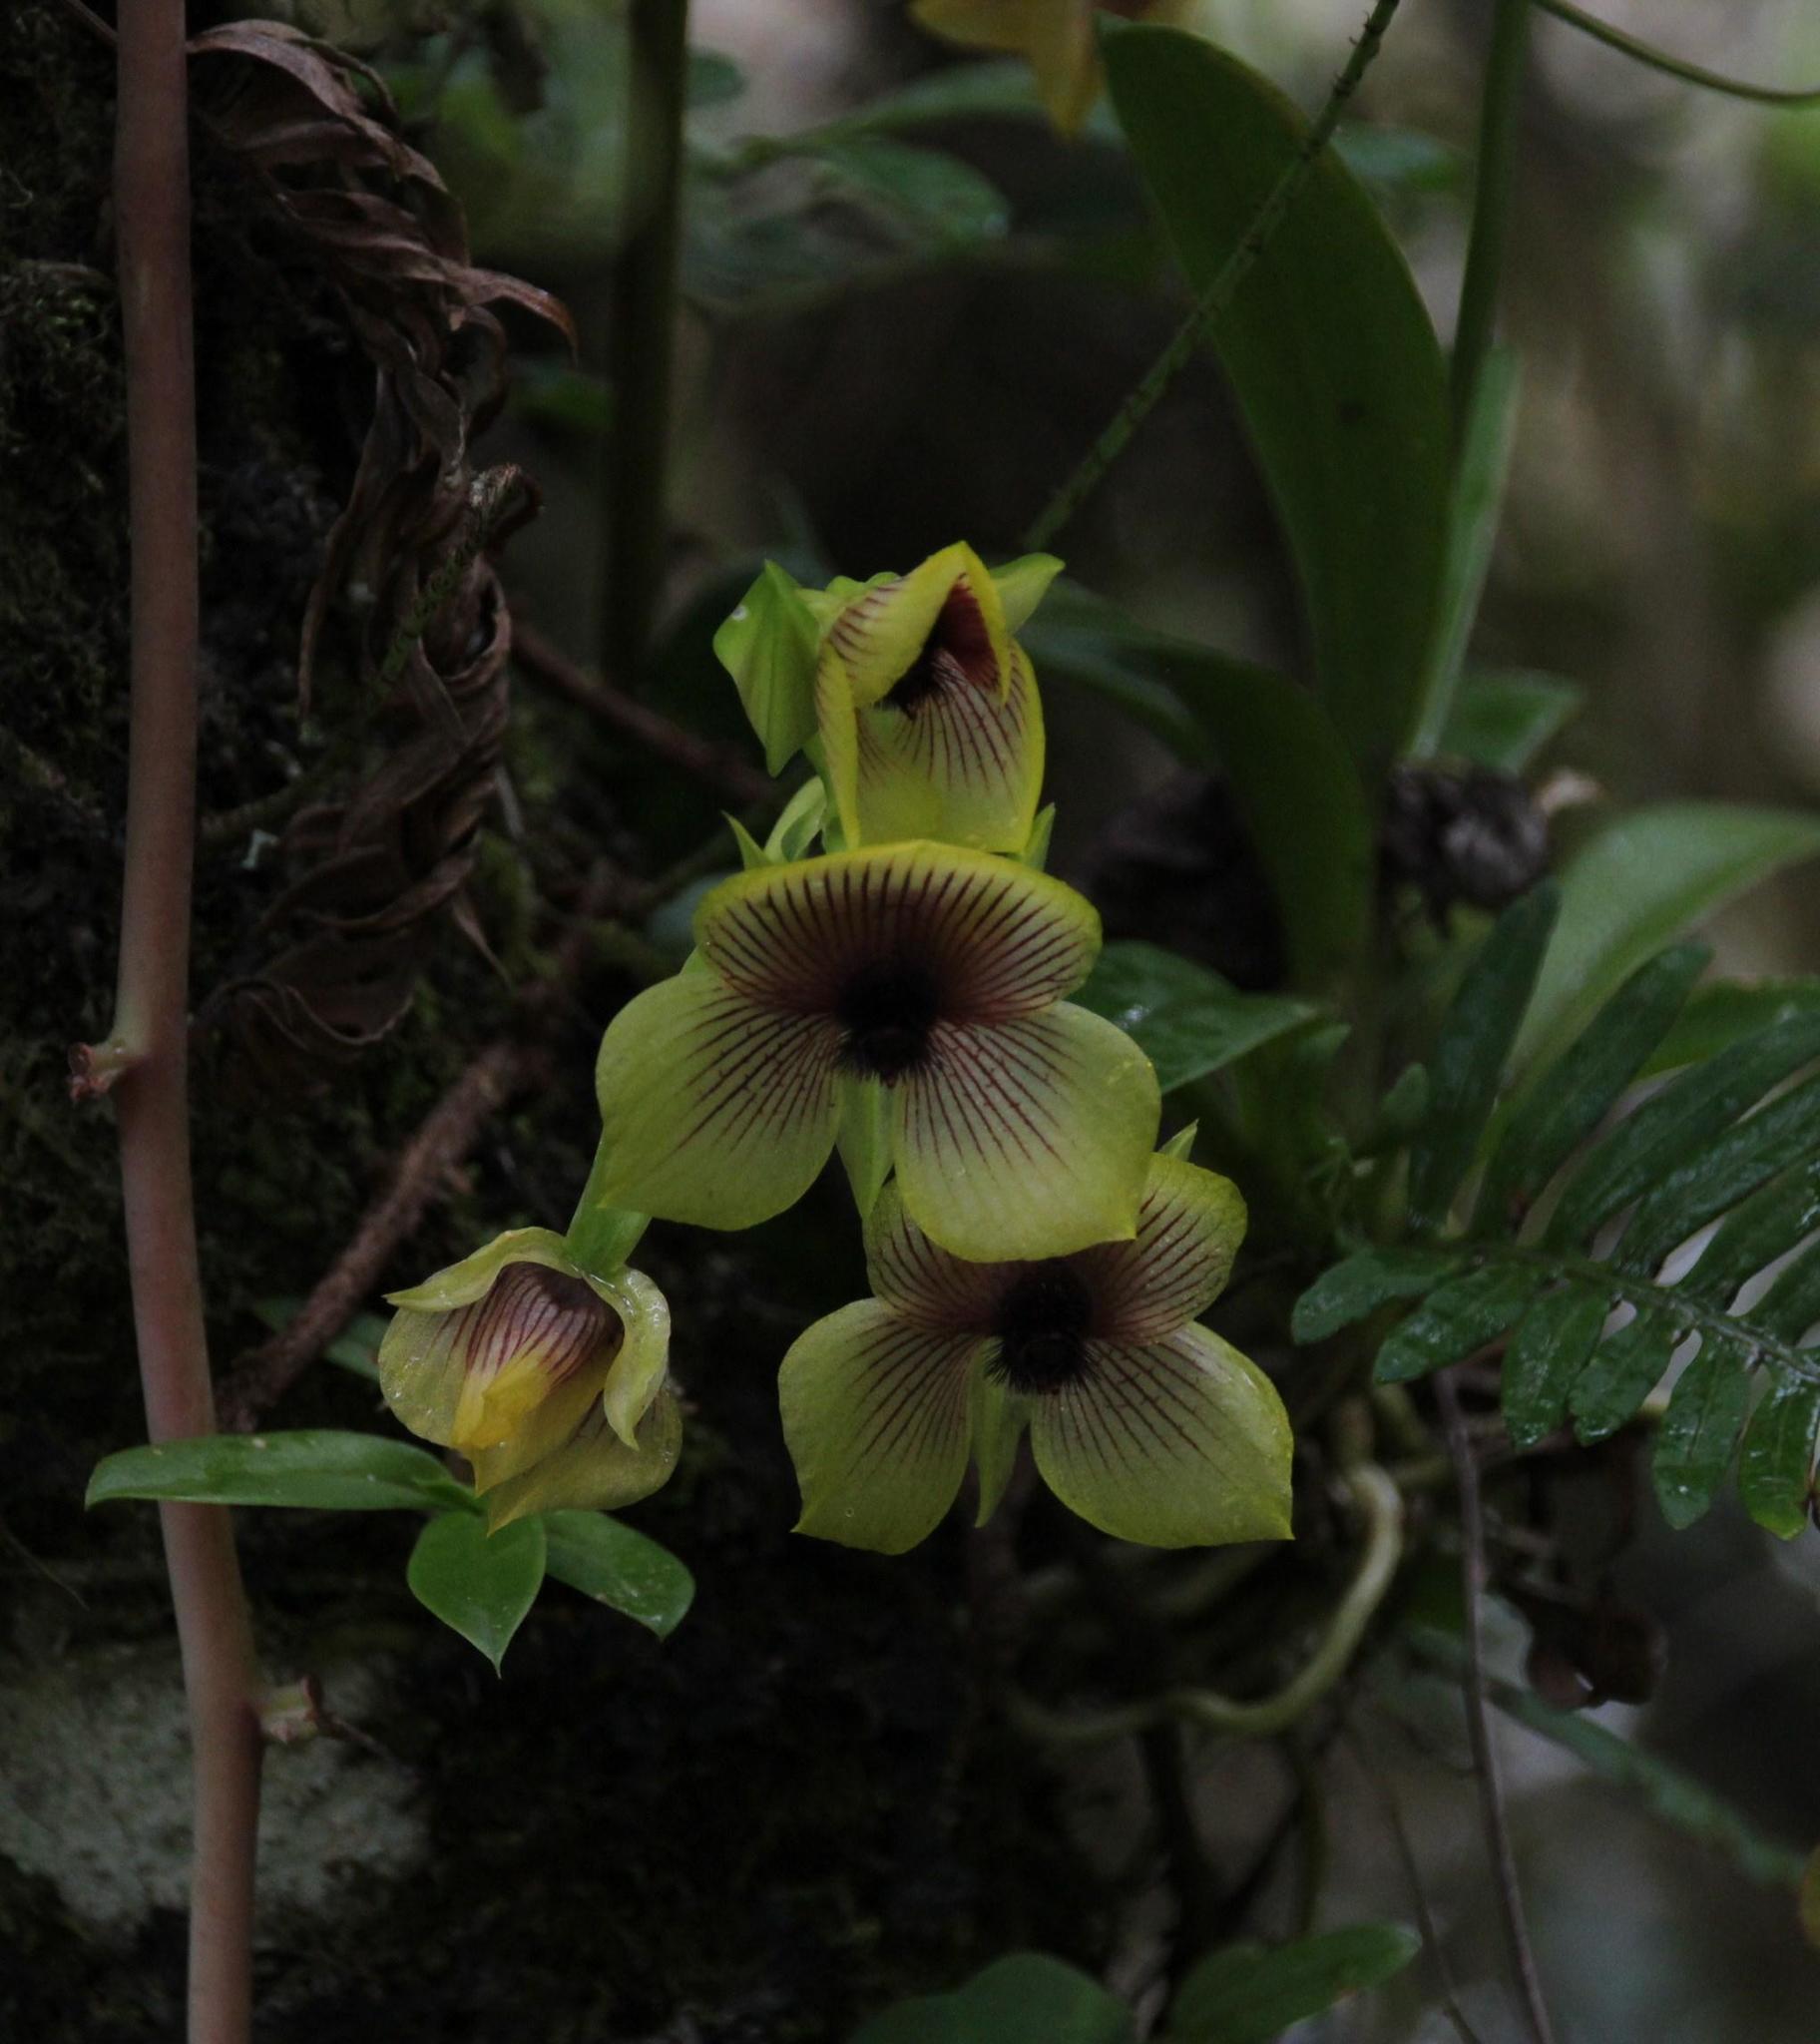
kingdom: Plantae
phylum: Tracheophyta
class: Liliopsida
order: Asparagales
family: Orchidaceae
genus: Telipogon
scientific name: Telipogon antisuyuensis
